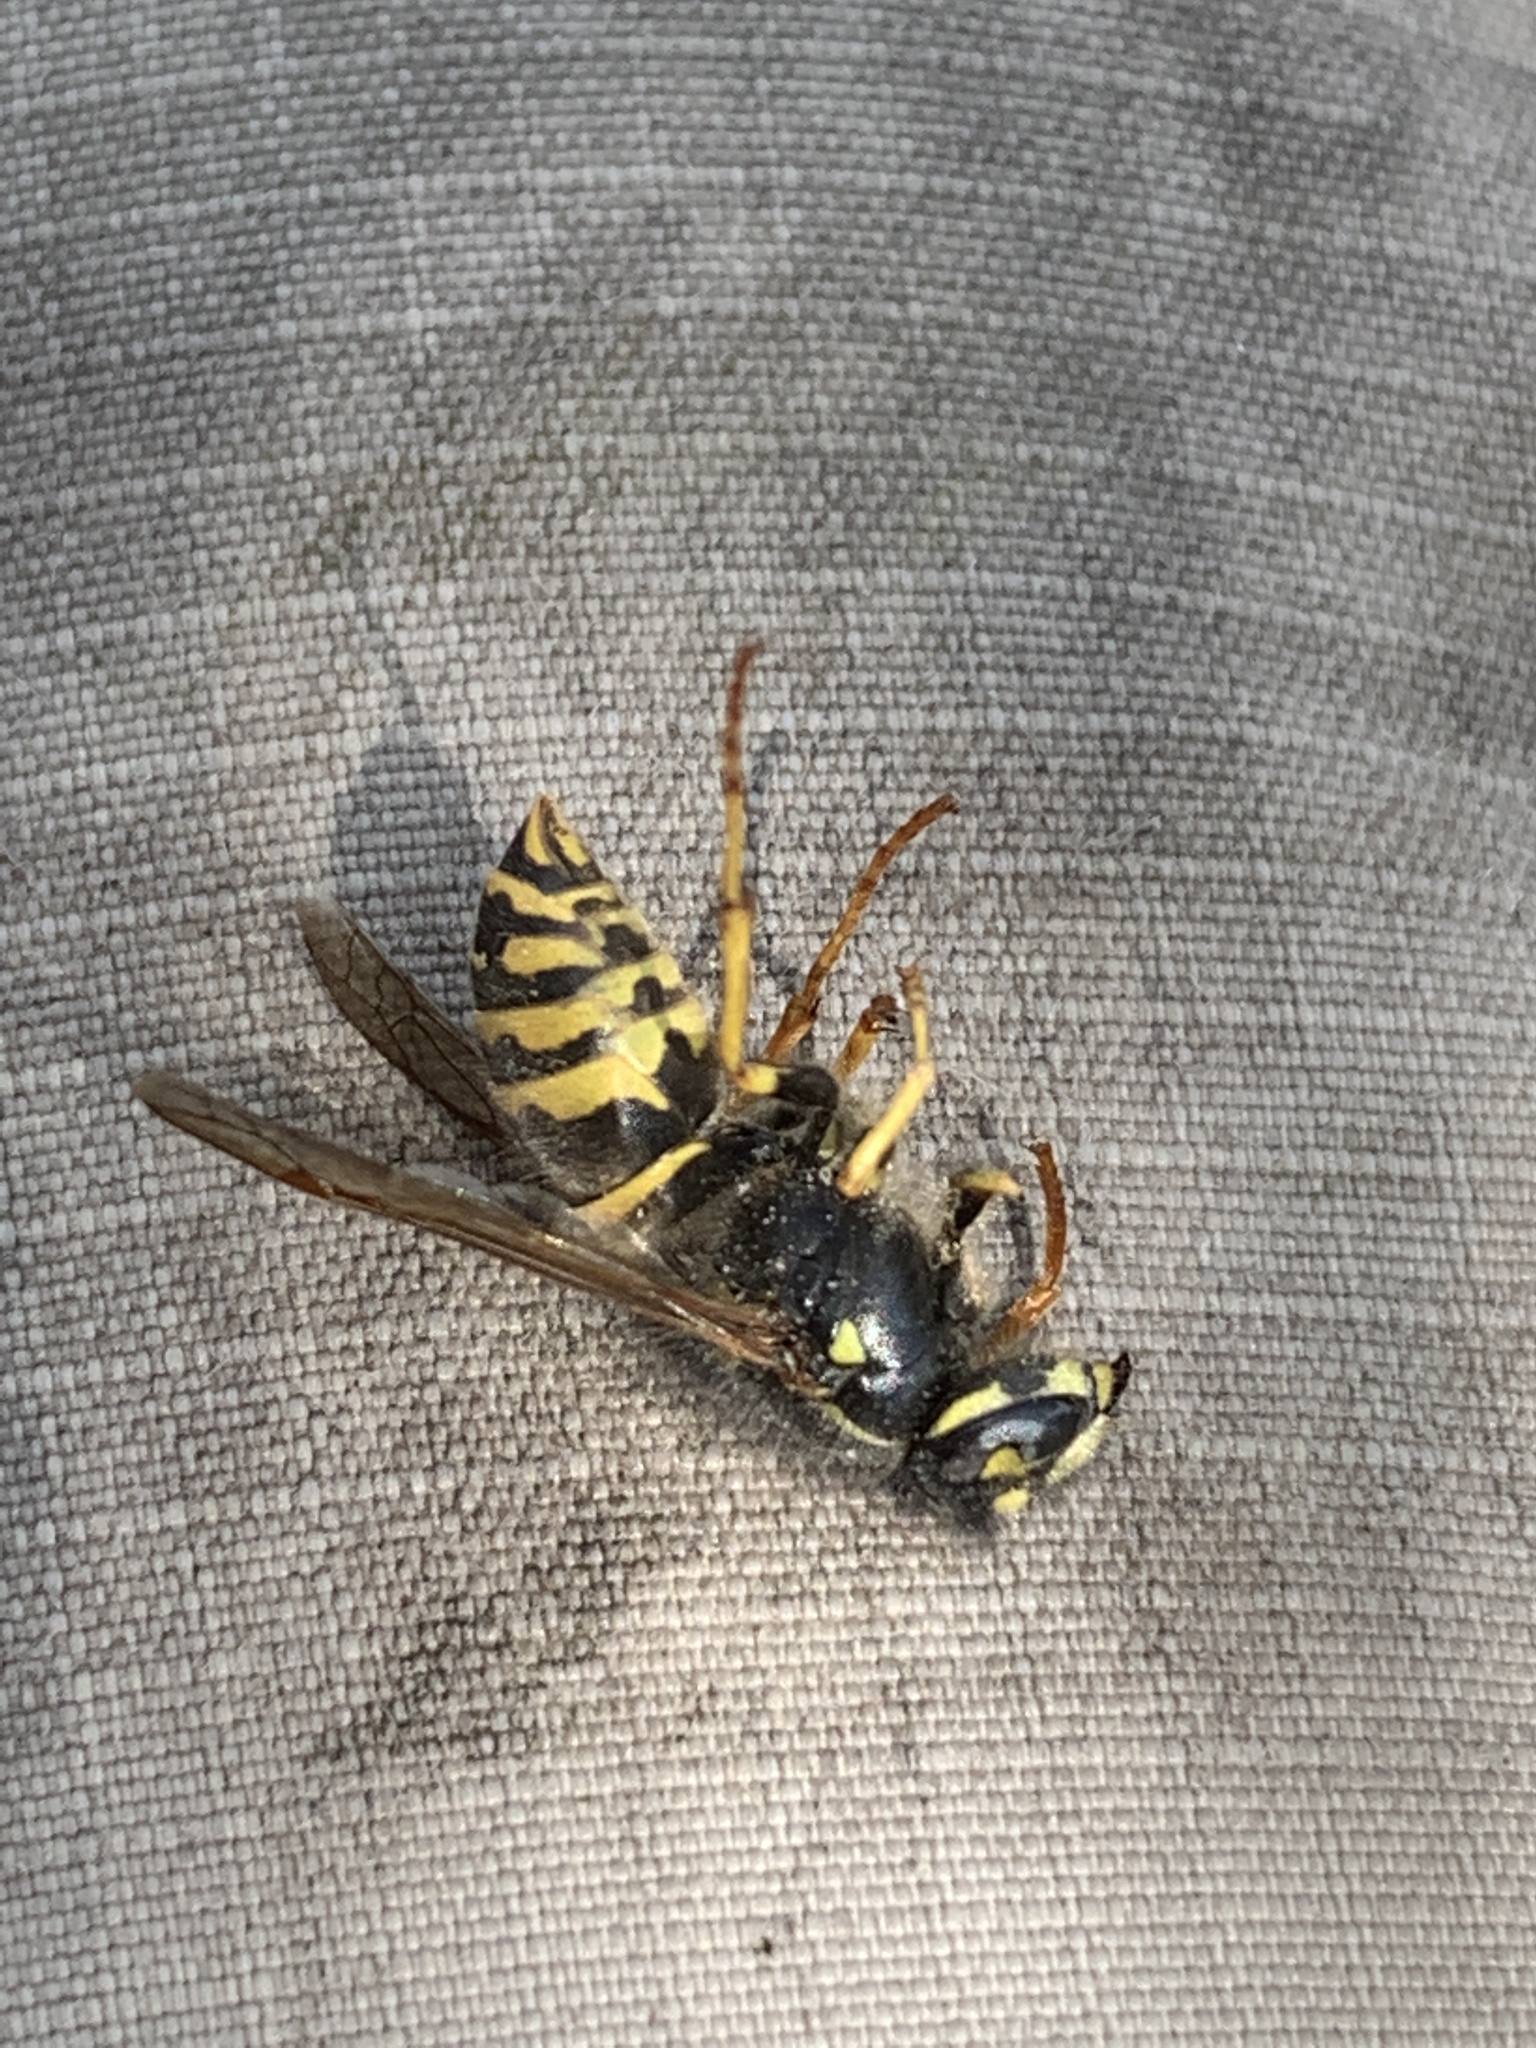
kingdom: Animalia
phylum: Arthropoda
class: Insecta
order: Hymenoptera
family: Vespidae
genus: Vespula
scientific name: Vespula alascensis
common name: Alaska yellowjacket
